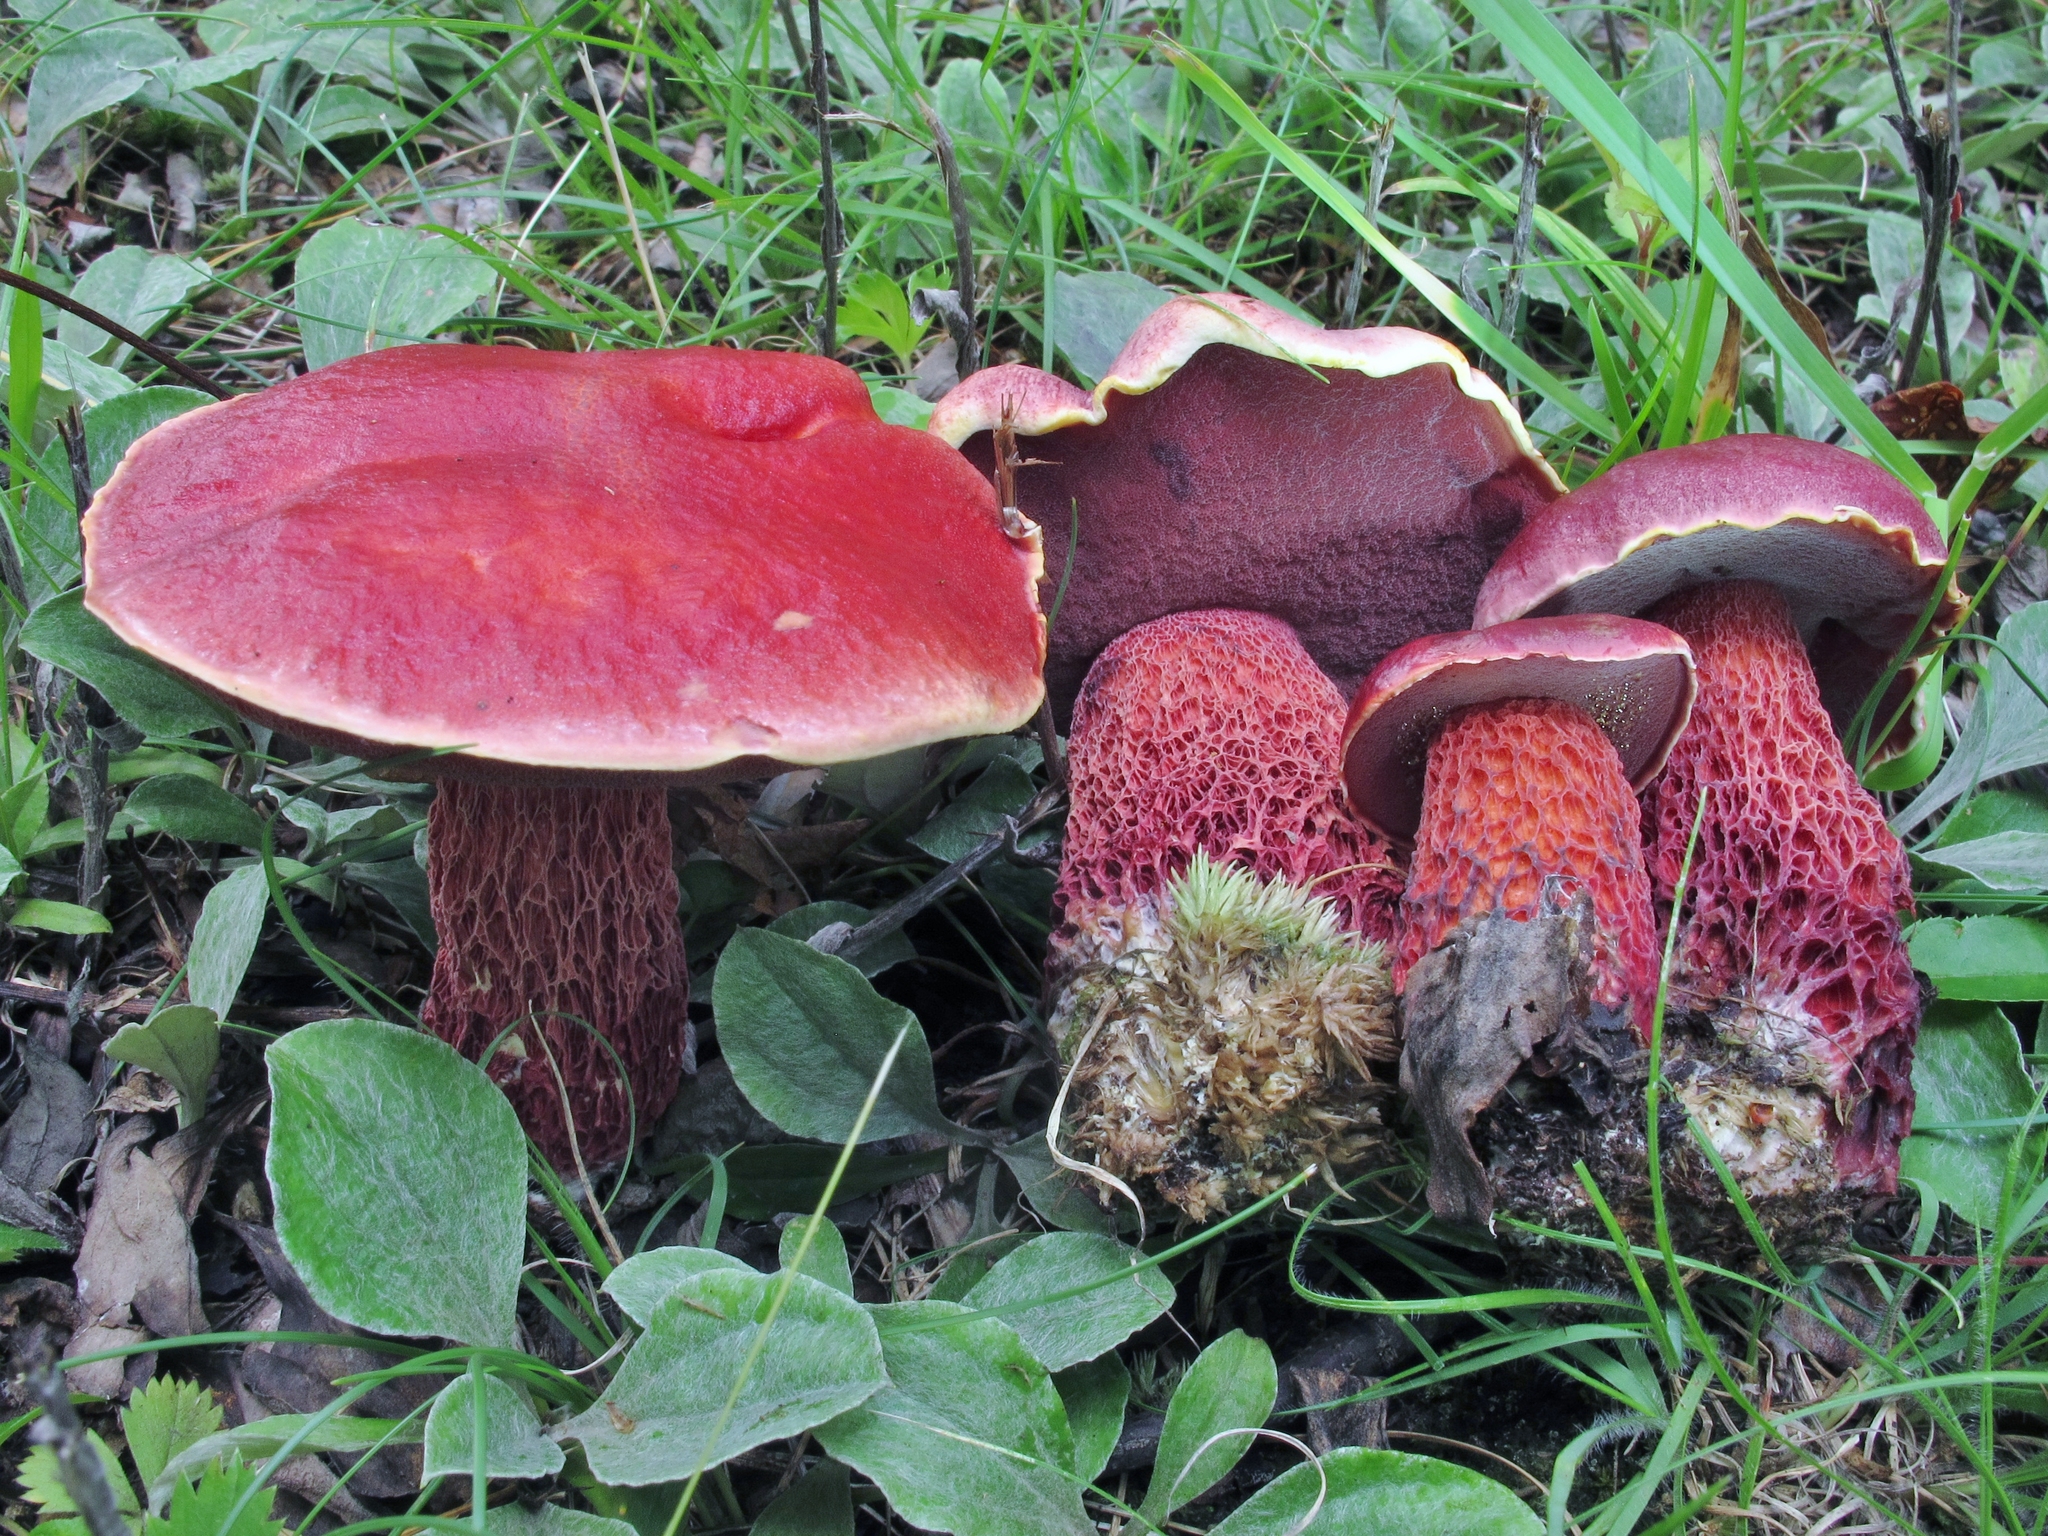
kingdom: Fungi
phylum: Basidiomycota
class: Agaricomycetes
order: Boletales
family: Boletaceae
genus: Butyriboletus
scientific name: Butyriboletus frostii
